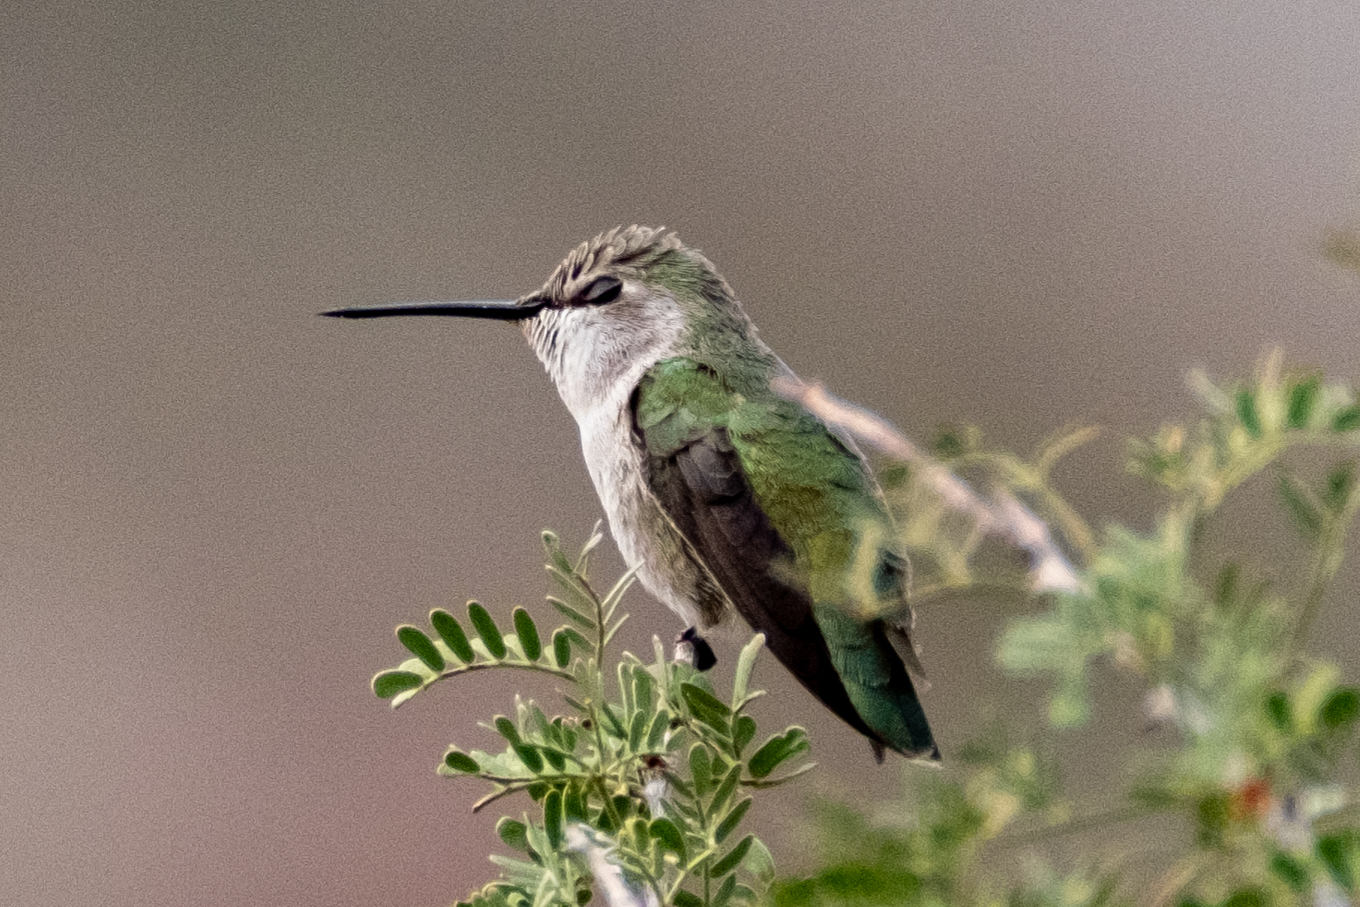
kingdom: Animalia
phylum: Chordata
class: Aves
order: Apodiformes
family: Trochilidae
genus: Calypte
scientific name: Calypte costae
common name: Costa's hummingbird
